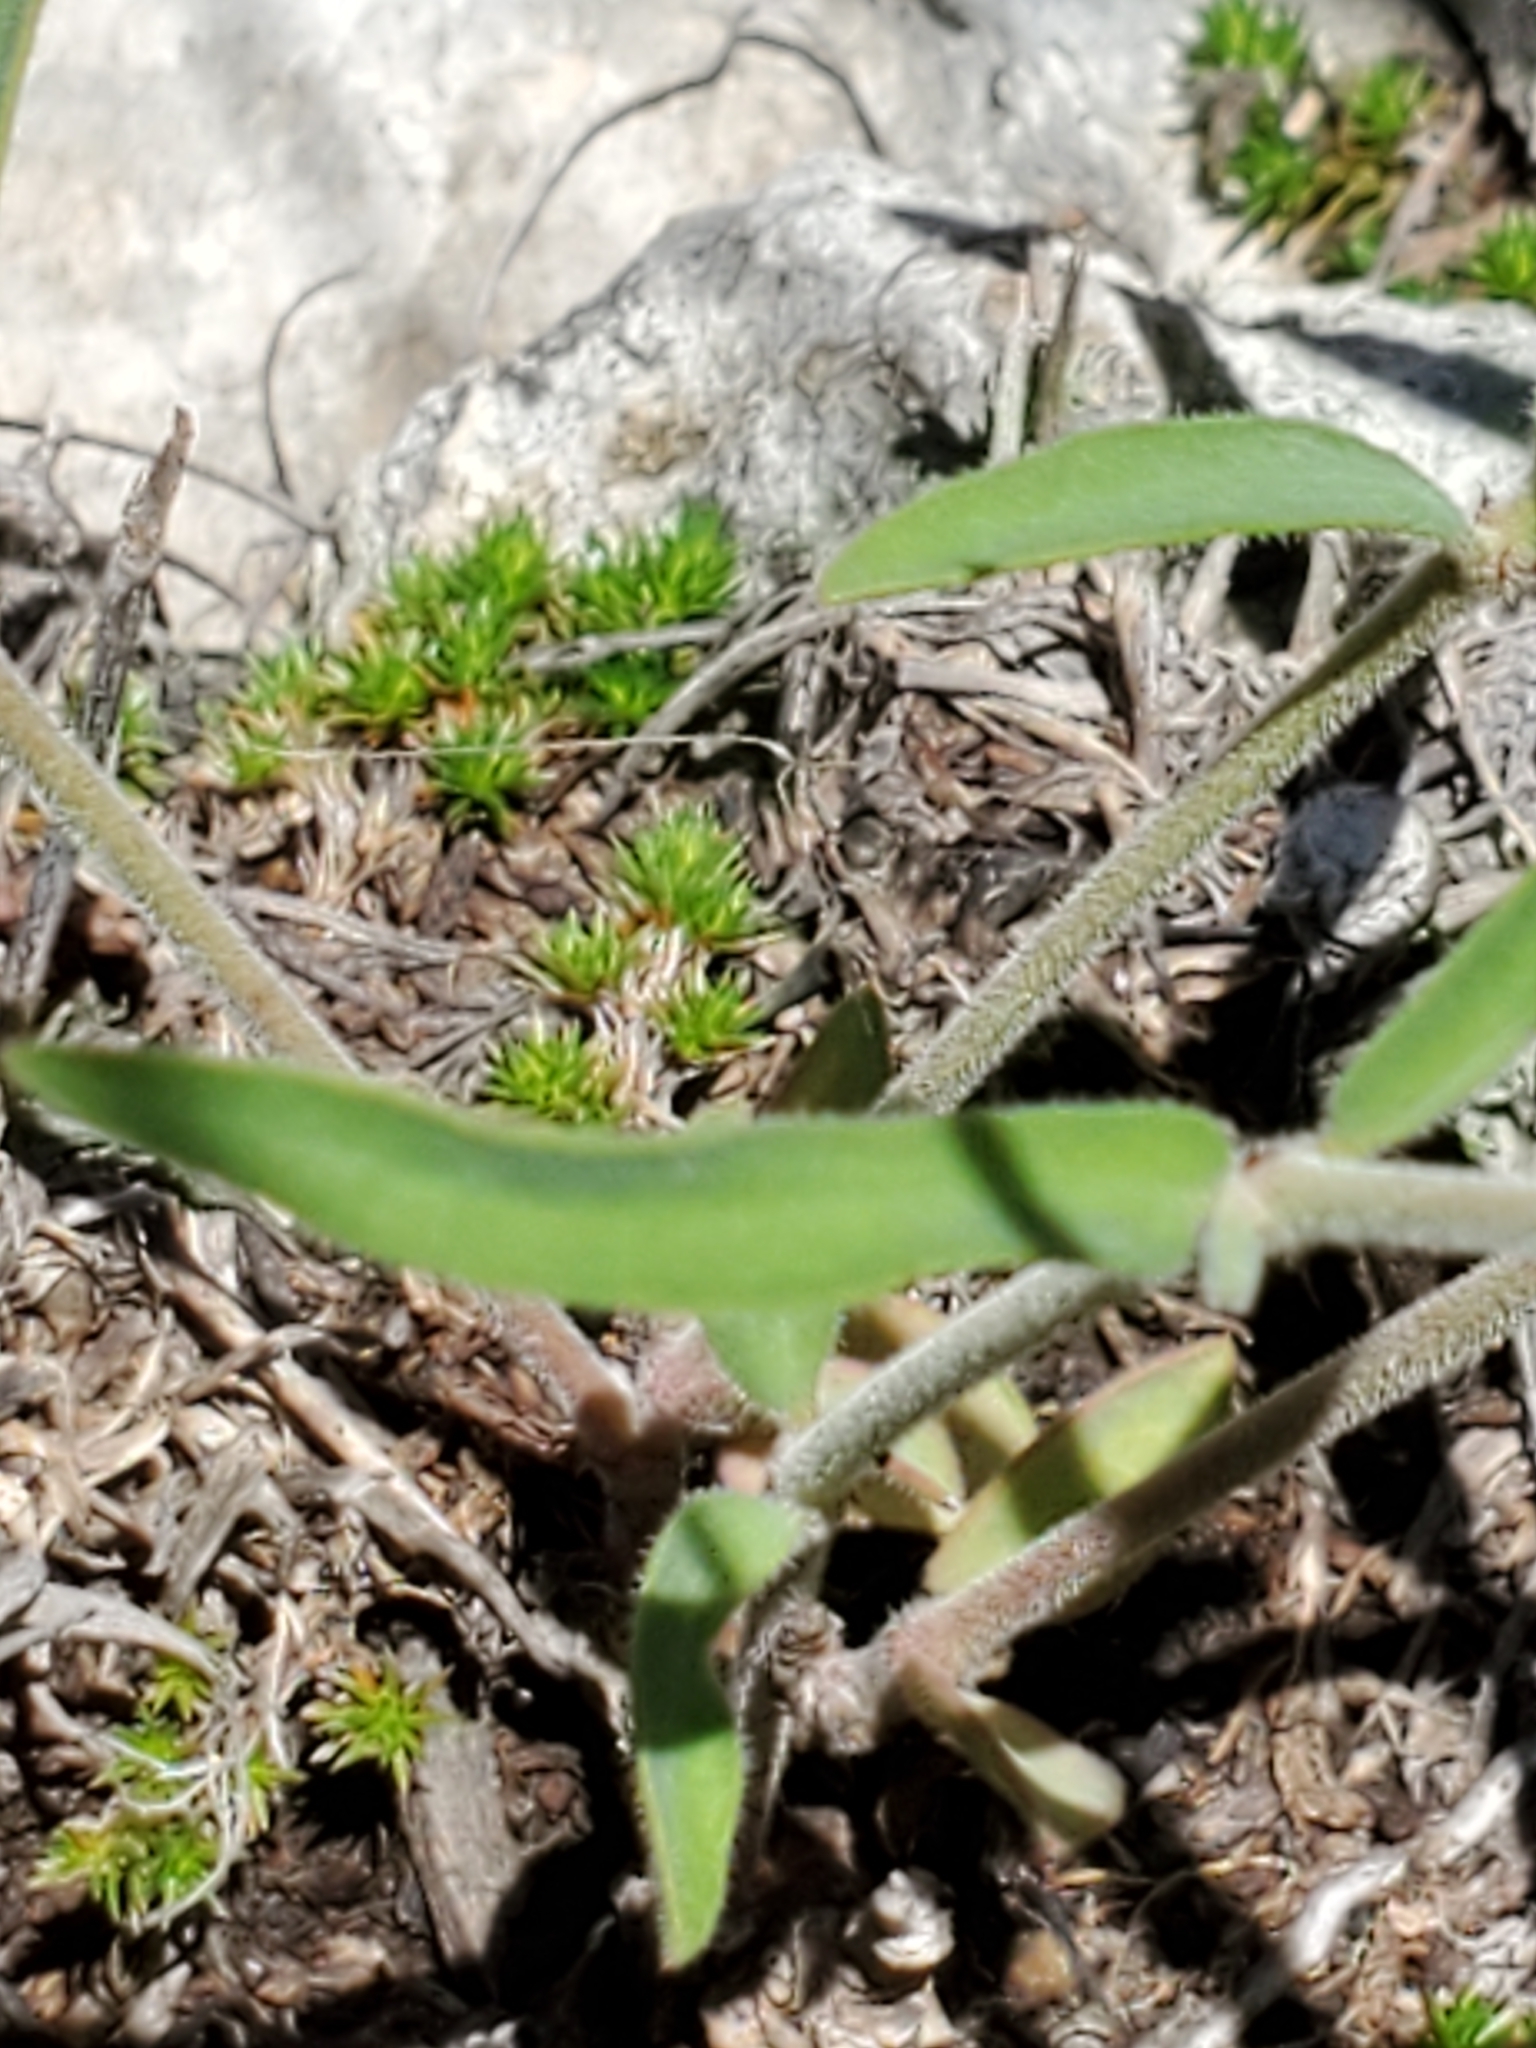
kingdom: Plantae
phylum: Tracheophyta
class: Magnoliopsida
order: Malpighiales
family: Euphorbiaceae
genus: Euphorbia
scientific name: Euphorbia angusta
